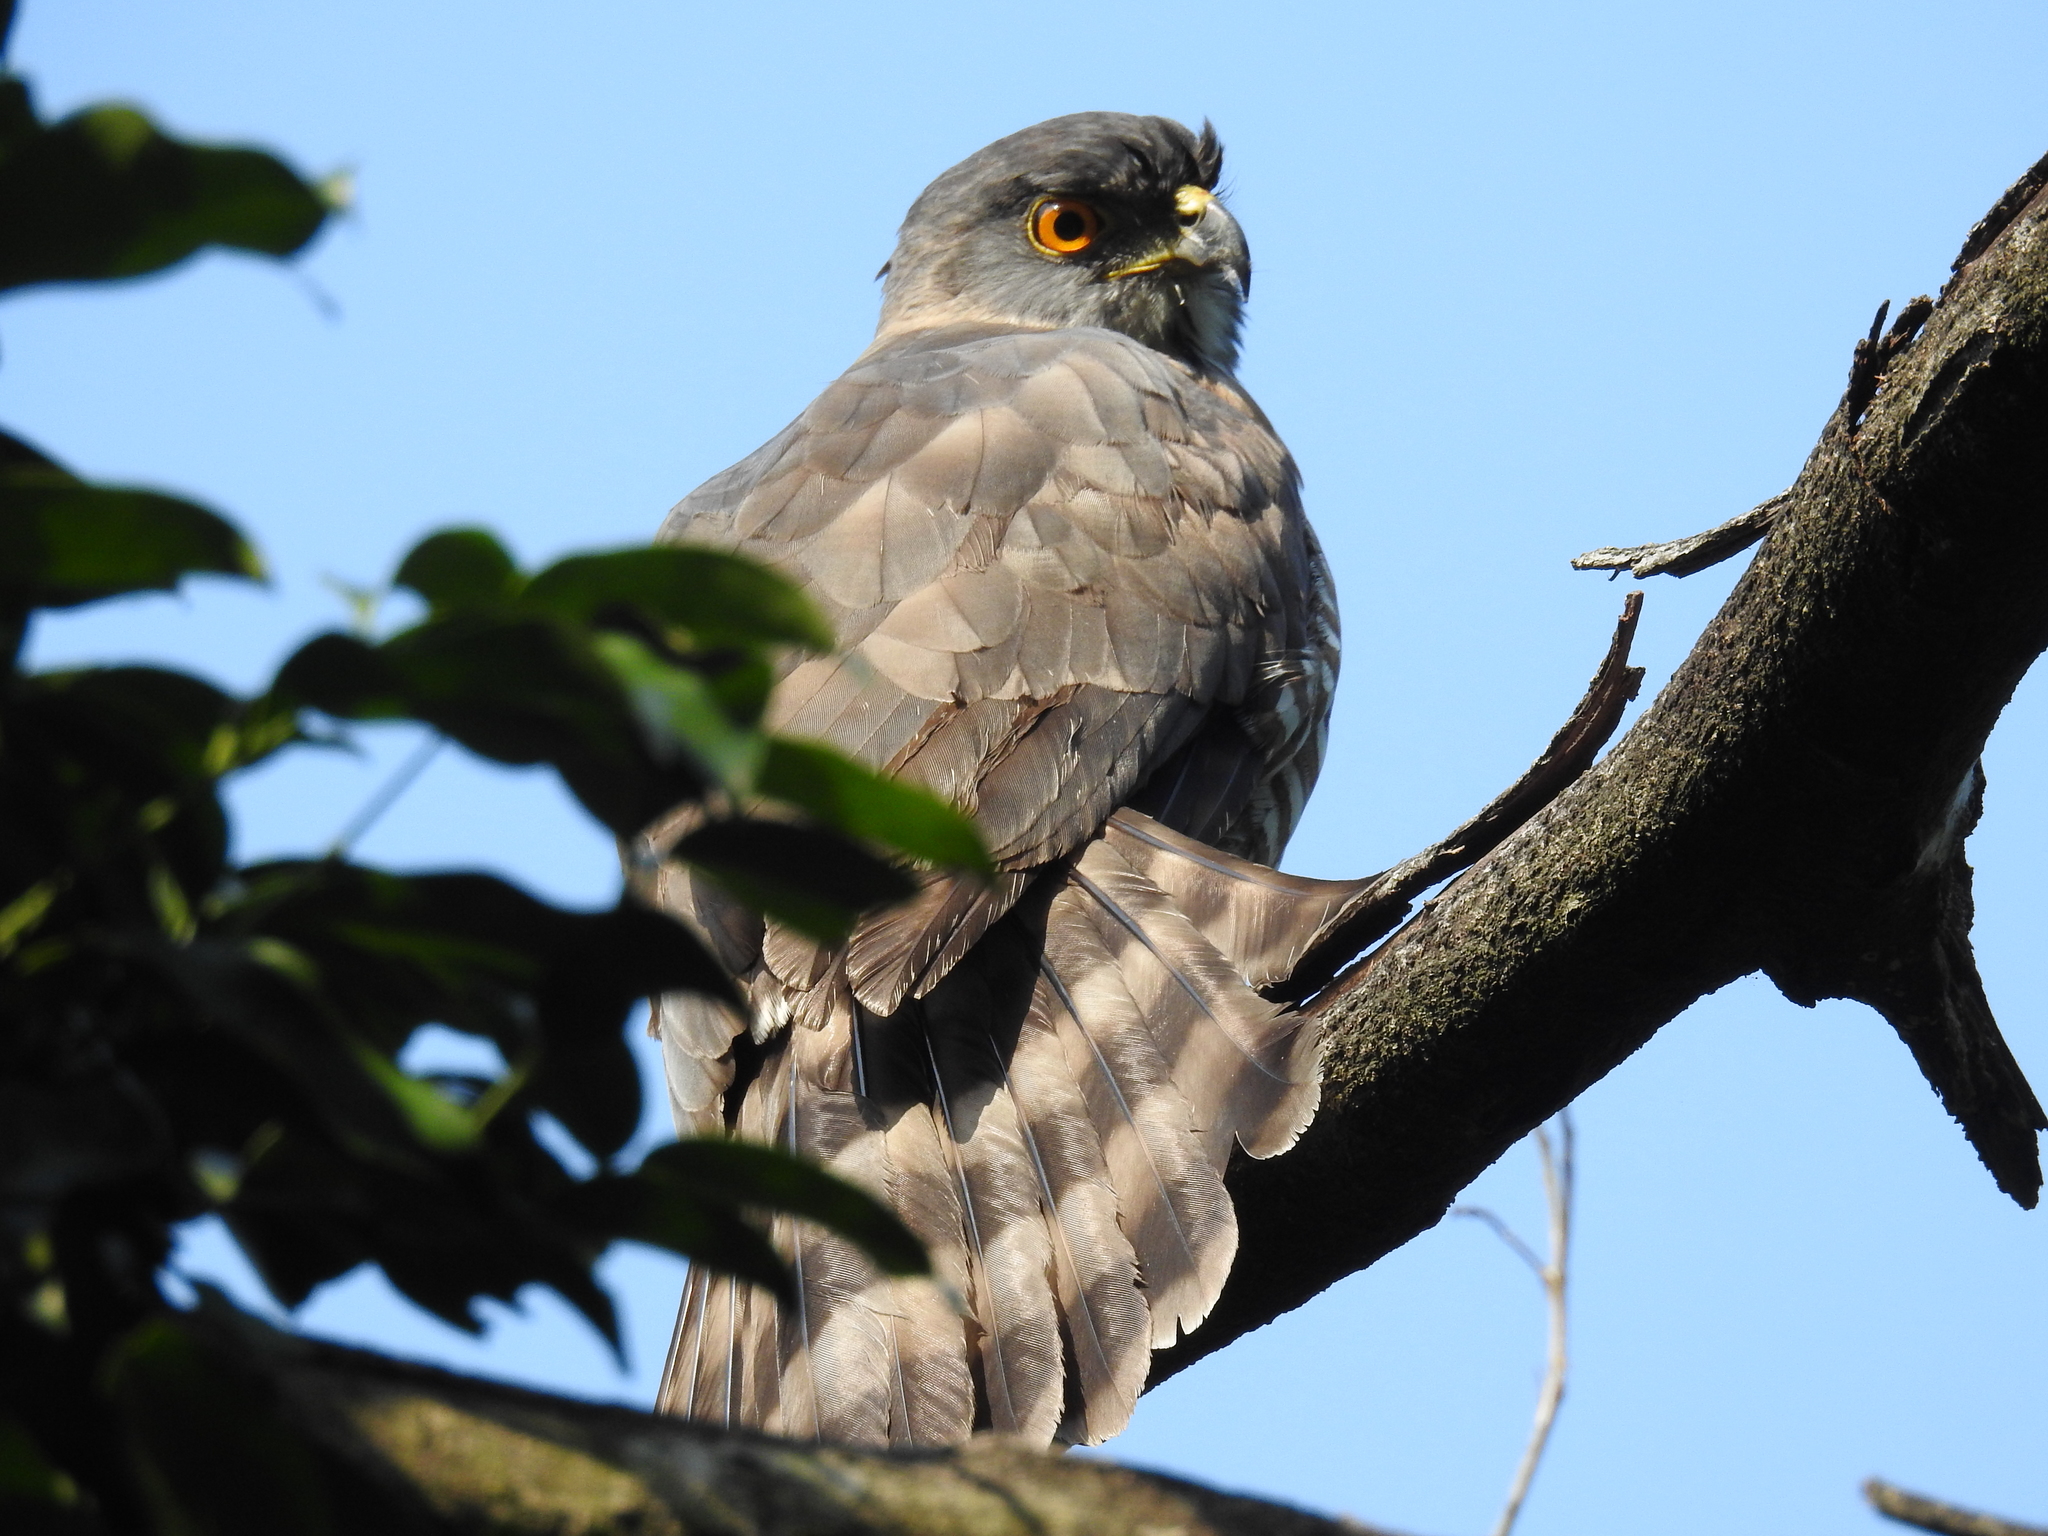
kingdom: Animalia
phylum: Chordata
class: Aves
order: Accipitriformes
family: Accipitridae
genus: Accipiter
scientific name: Accipiter trivirgatus
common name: Crested goshawk
